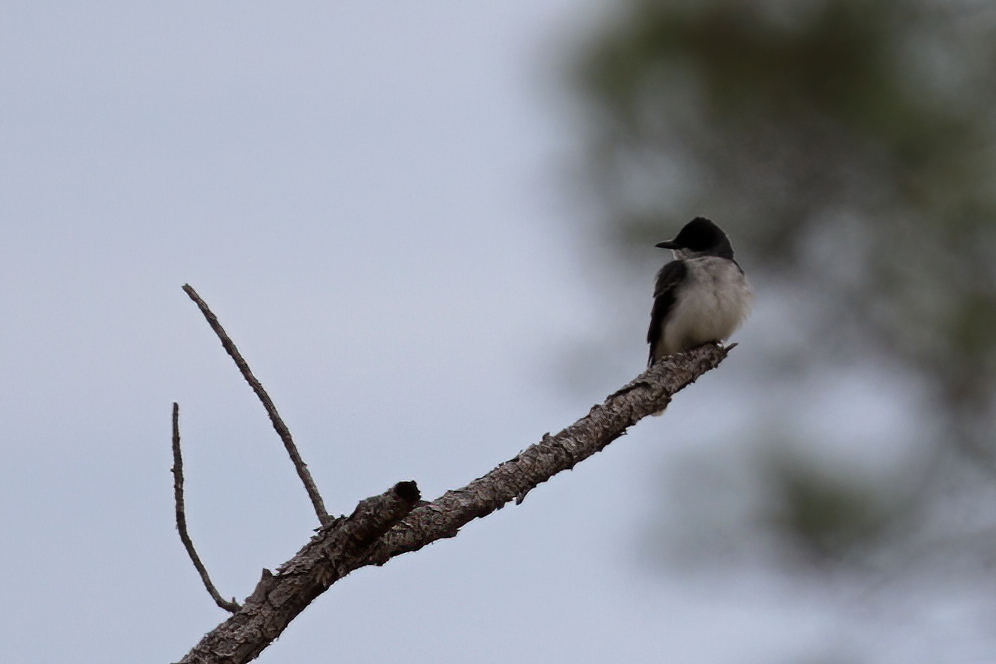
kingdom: Animalia
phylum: Chordata
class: Aves
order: Passeriformes
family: Tyrannidae
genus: Tyrannus
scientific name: Tyrannus tyrannus
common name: Eastern kingbird
